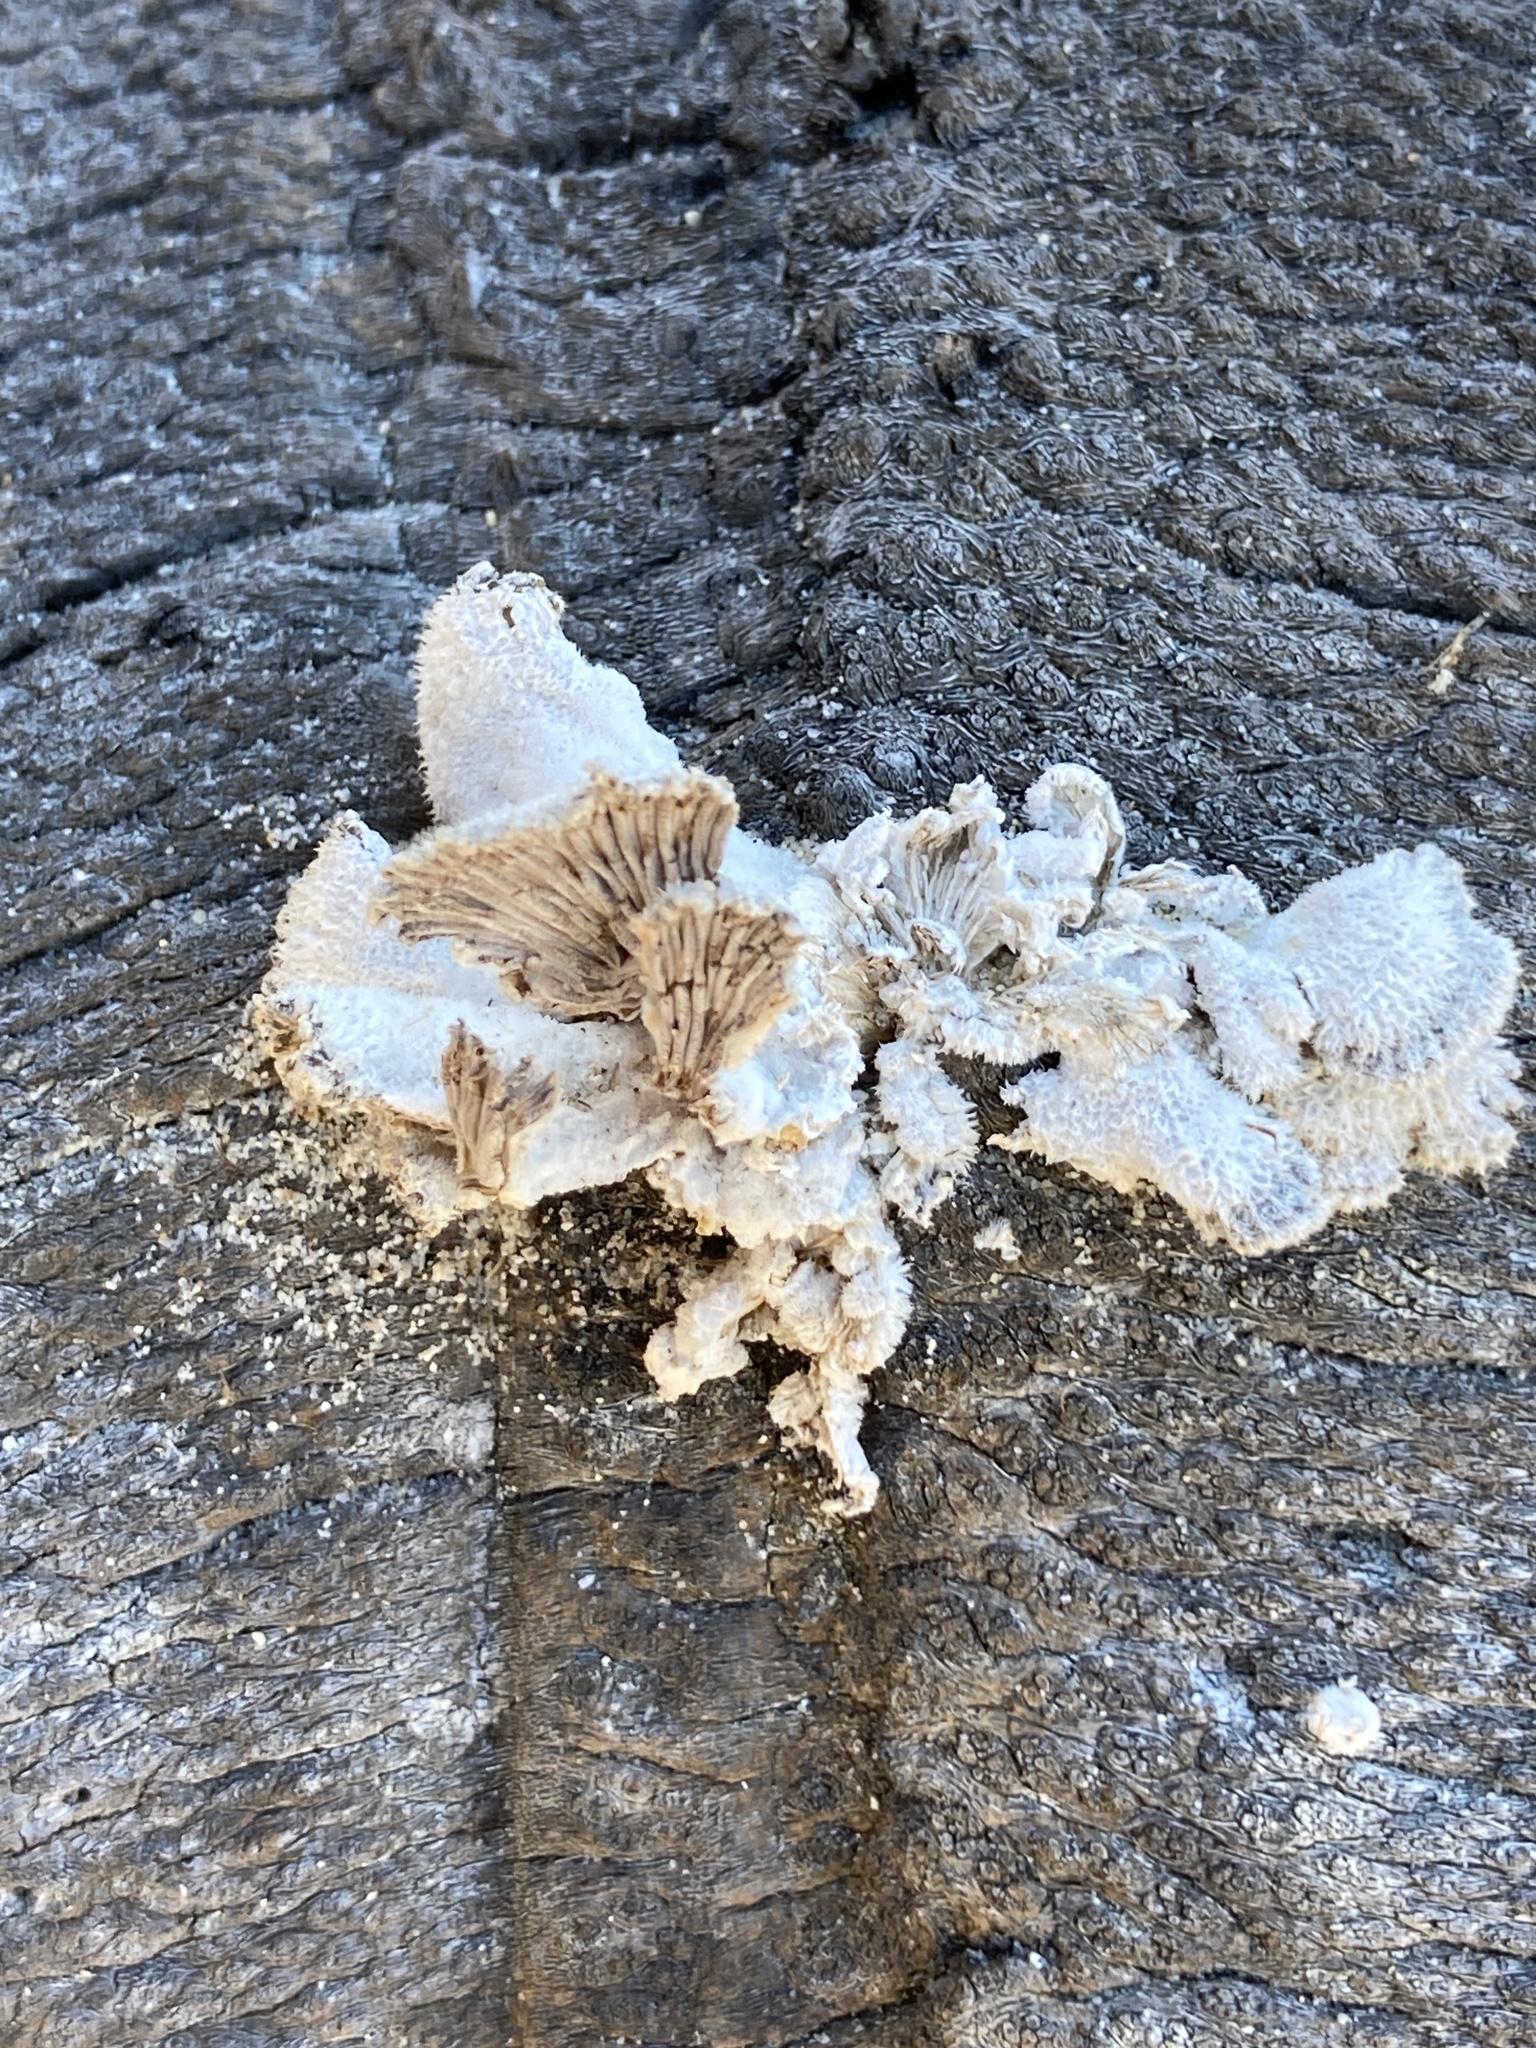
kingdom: Fungi
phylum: Basidiomycota
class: Agaricomycetes
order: Agaricales
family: Schizophyllaceae
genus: Schizophyllum
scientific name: Schizophyllum commune
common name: Common porecrust
